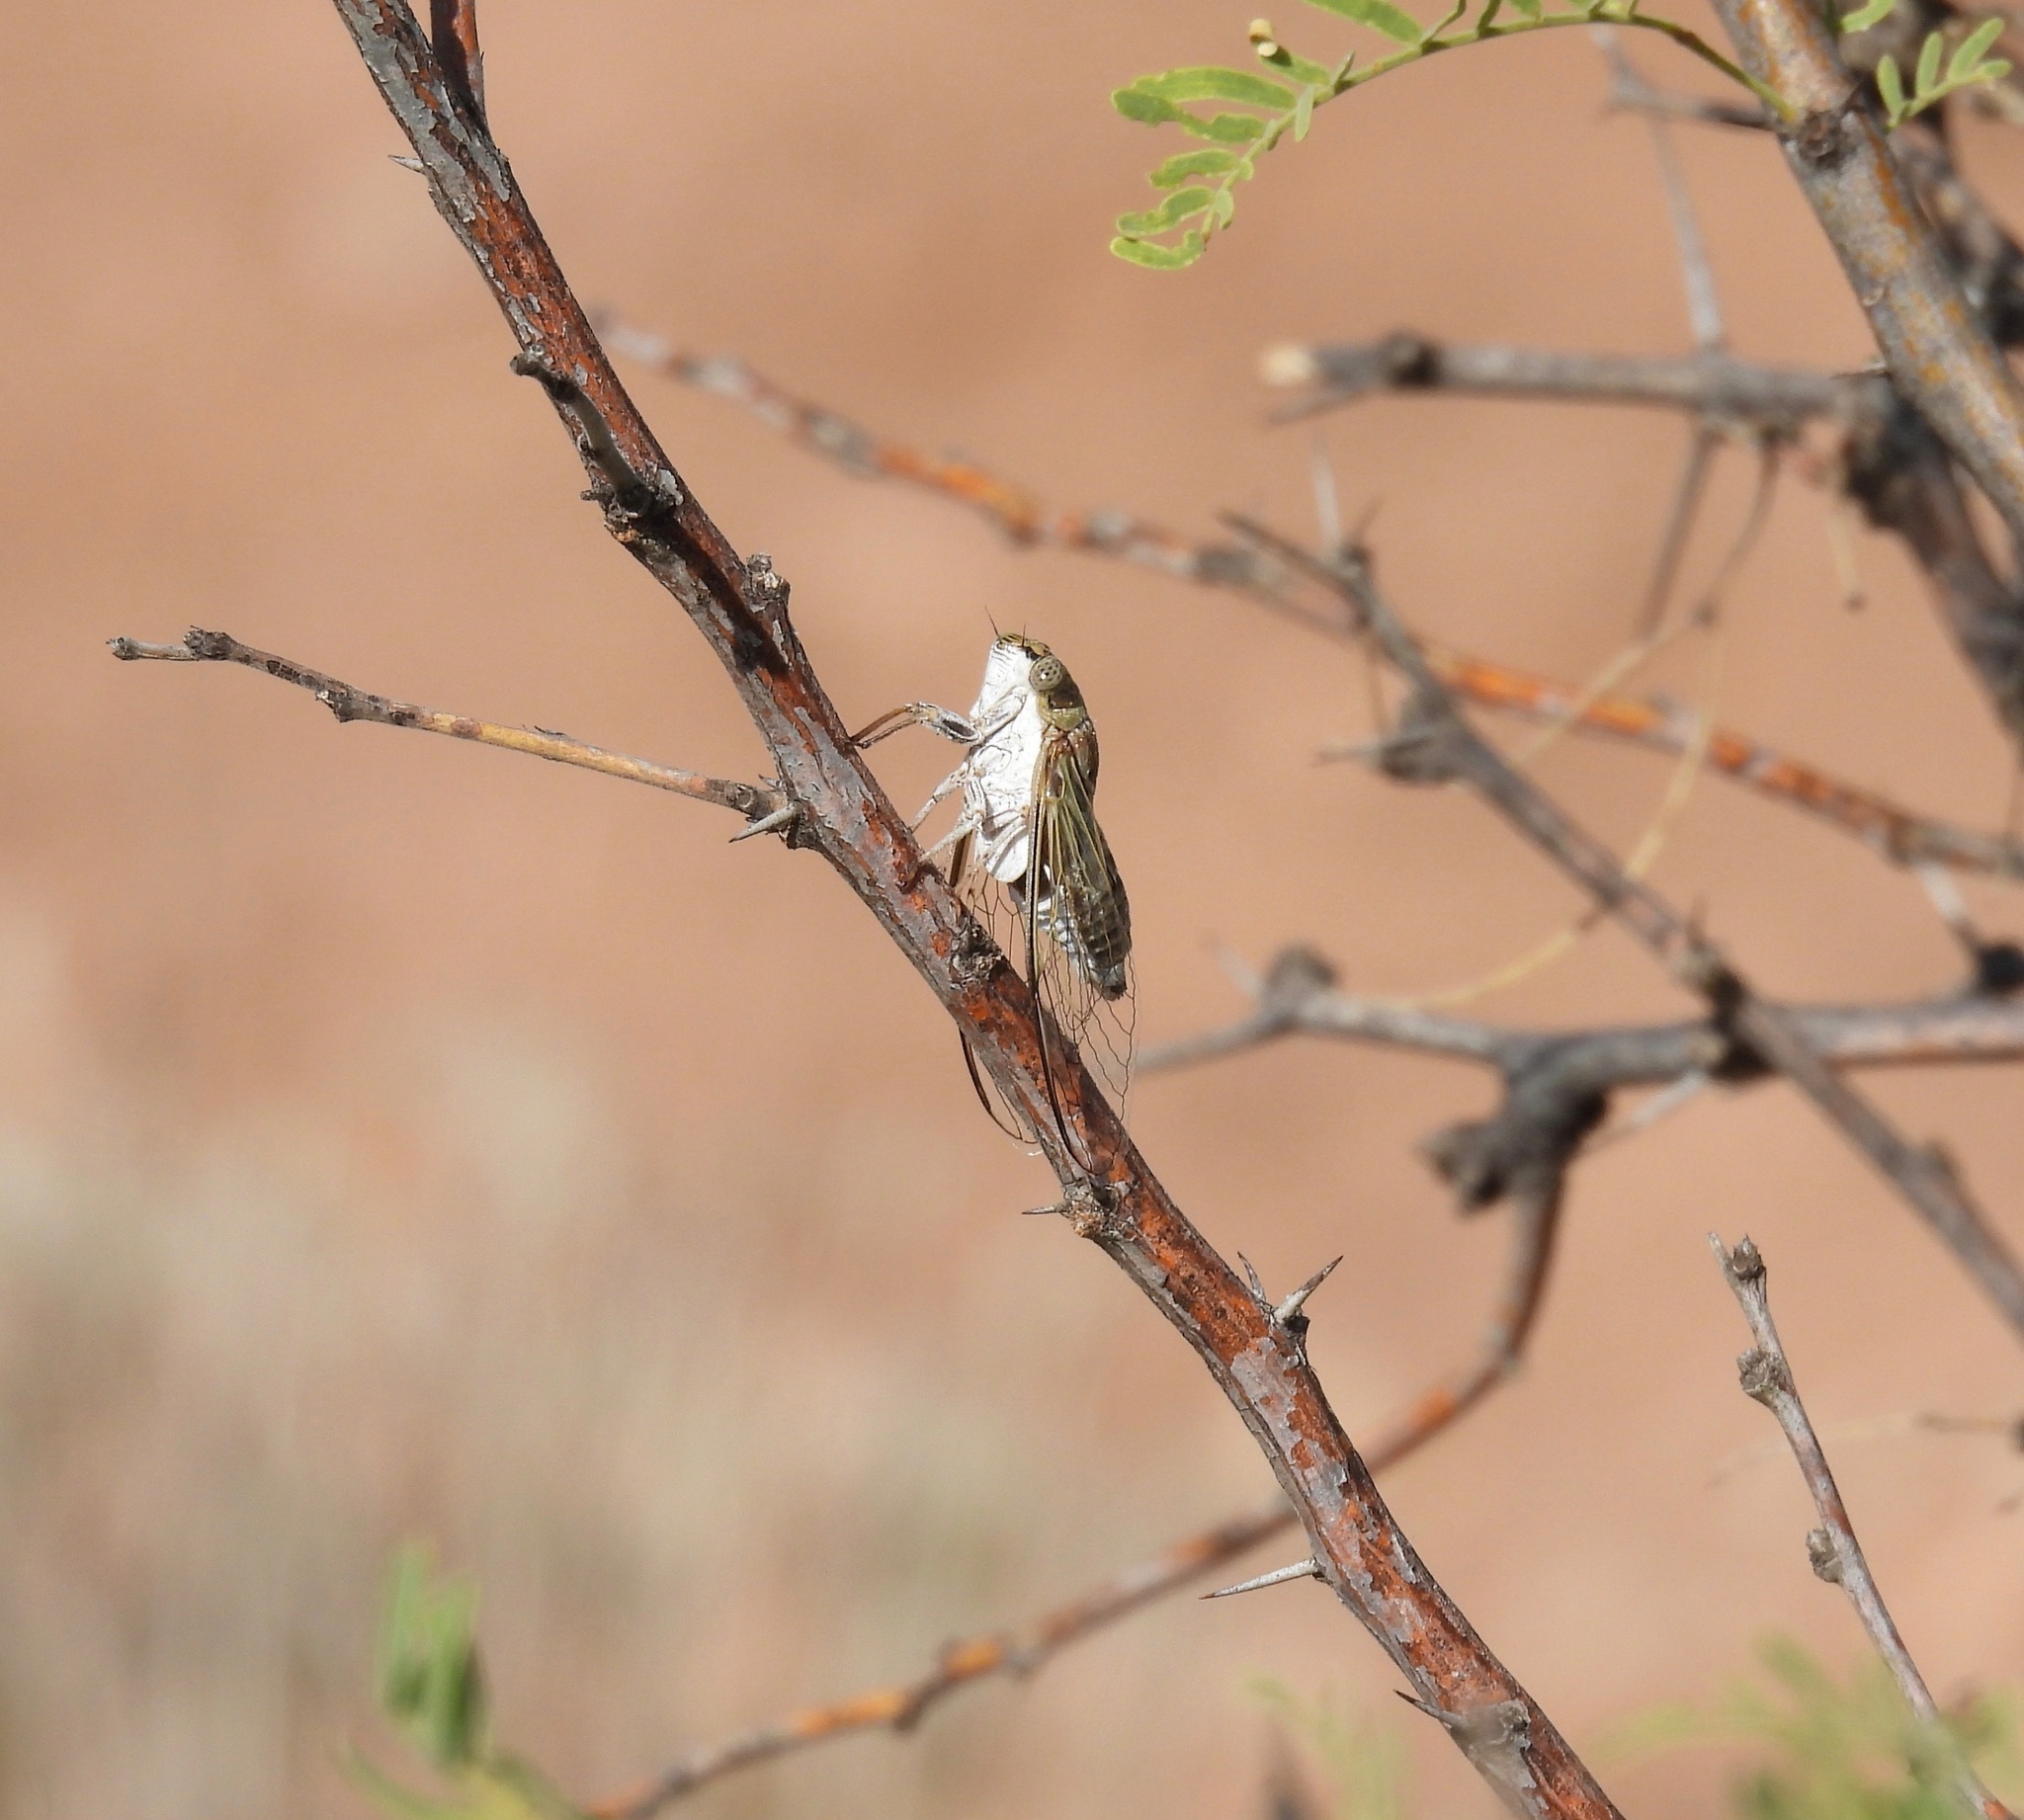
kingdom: Animalia
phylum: Arthropoda
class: Insecta
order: Hemiptera
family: Cicadidae
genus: Diceroprocta
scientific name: Diceroprocta texana
